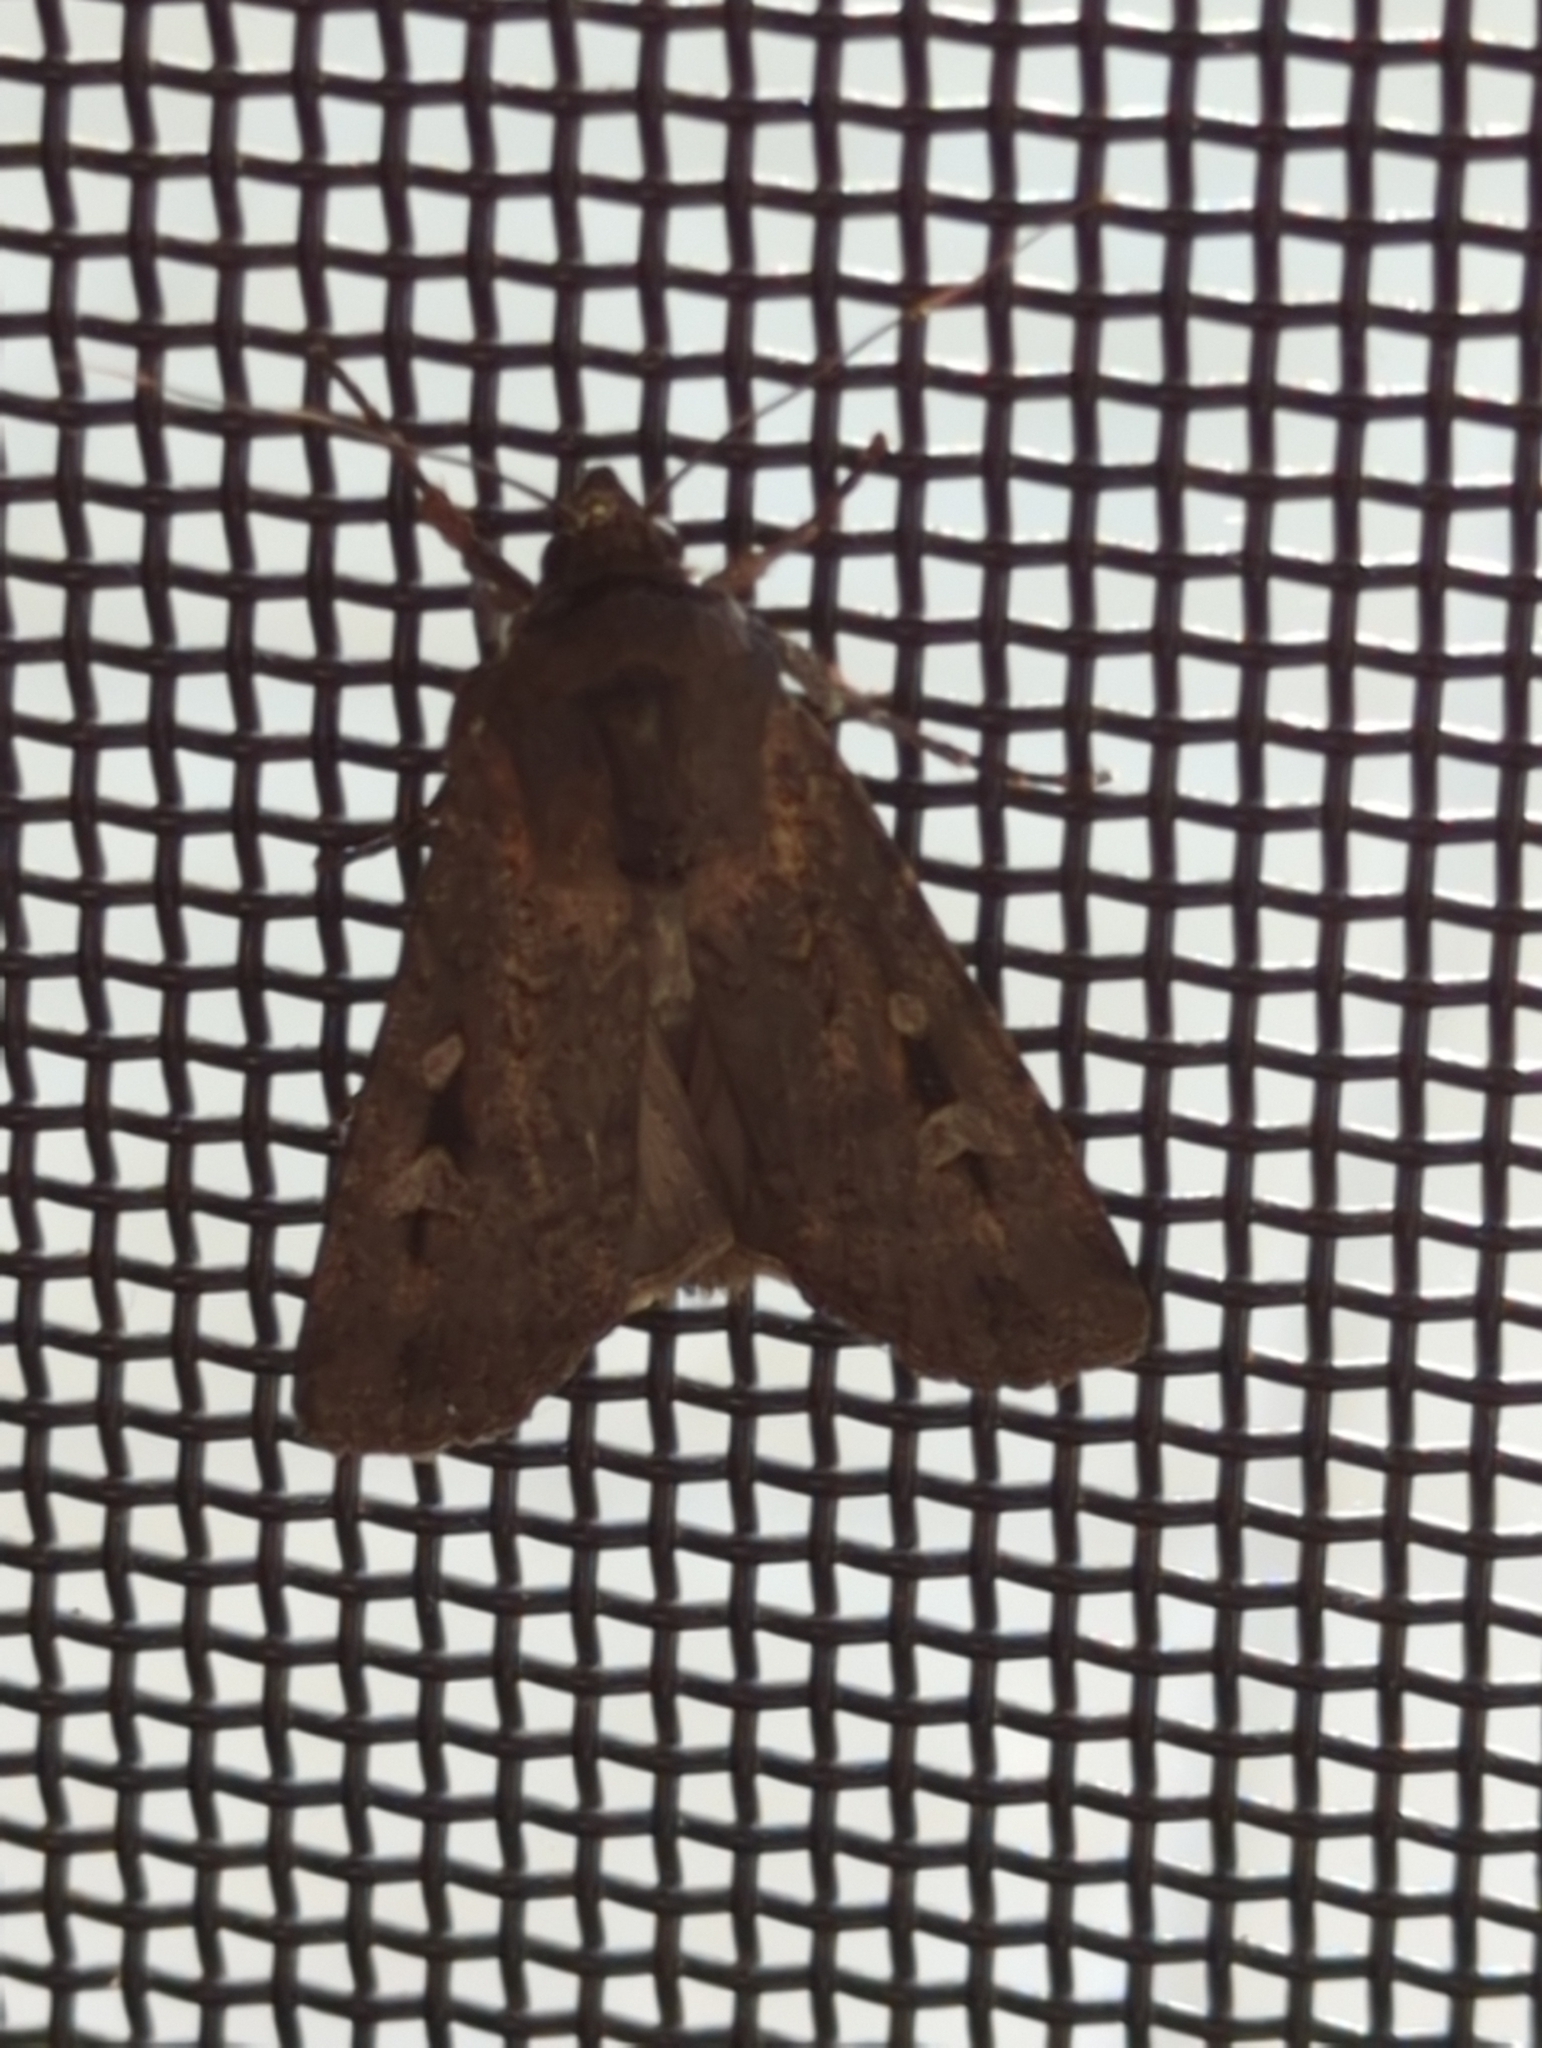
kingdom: Animalia
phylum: Arthropoda
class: Insecta
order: Lepidoptera
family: Noctuidae
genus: Agrotis
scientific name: Agrotis infusa
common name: Bogong moth
